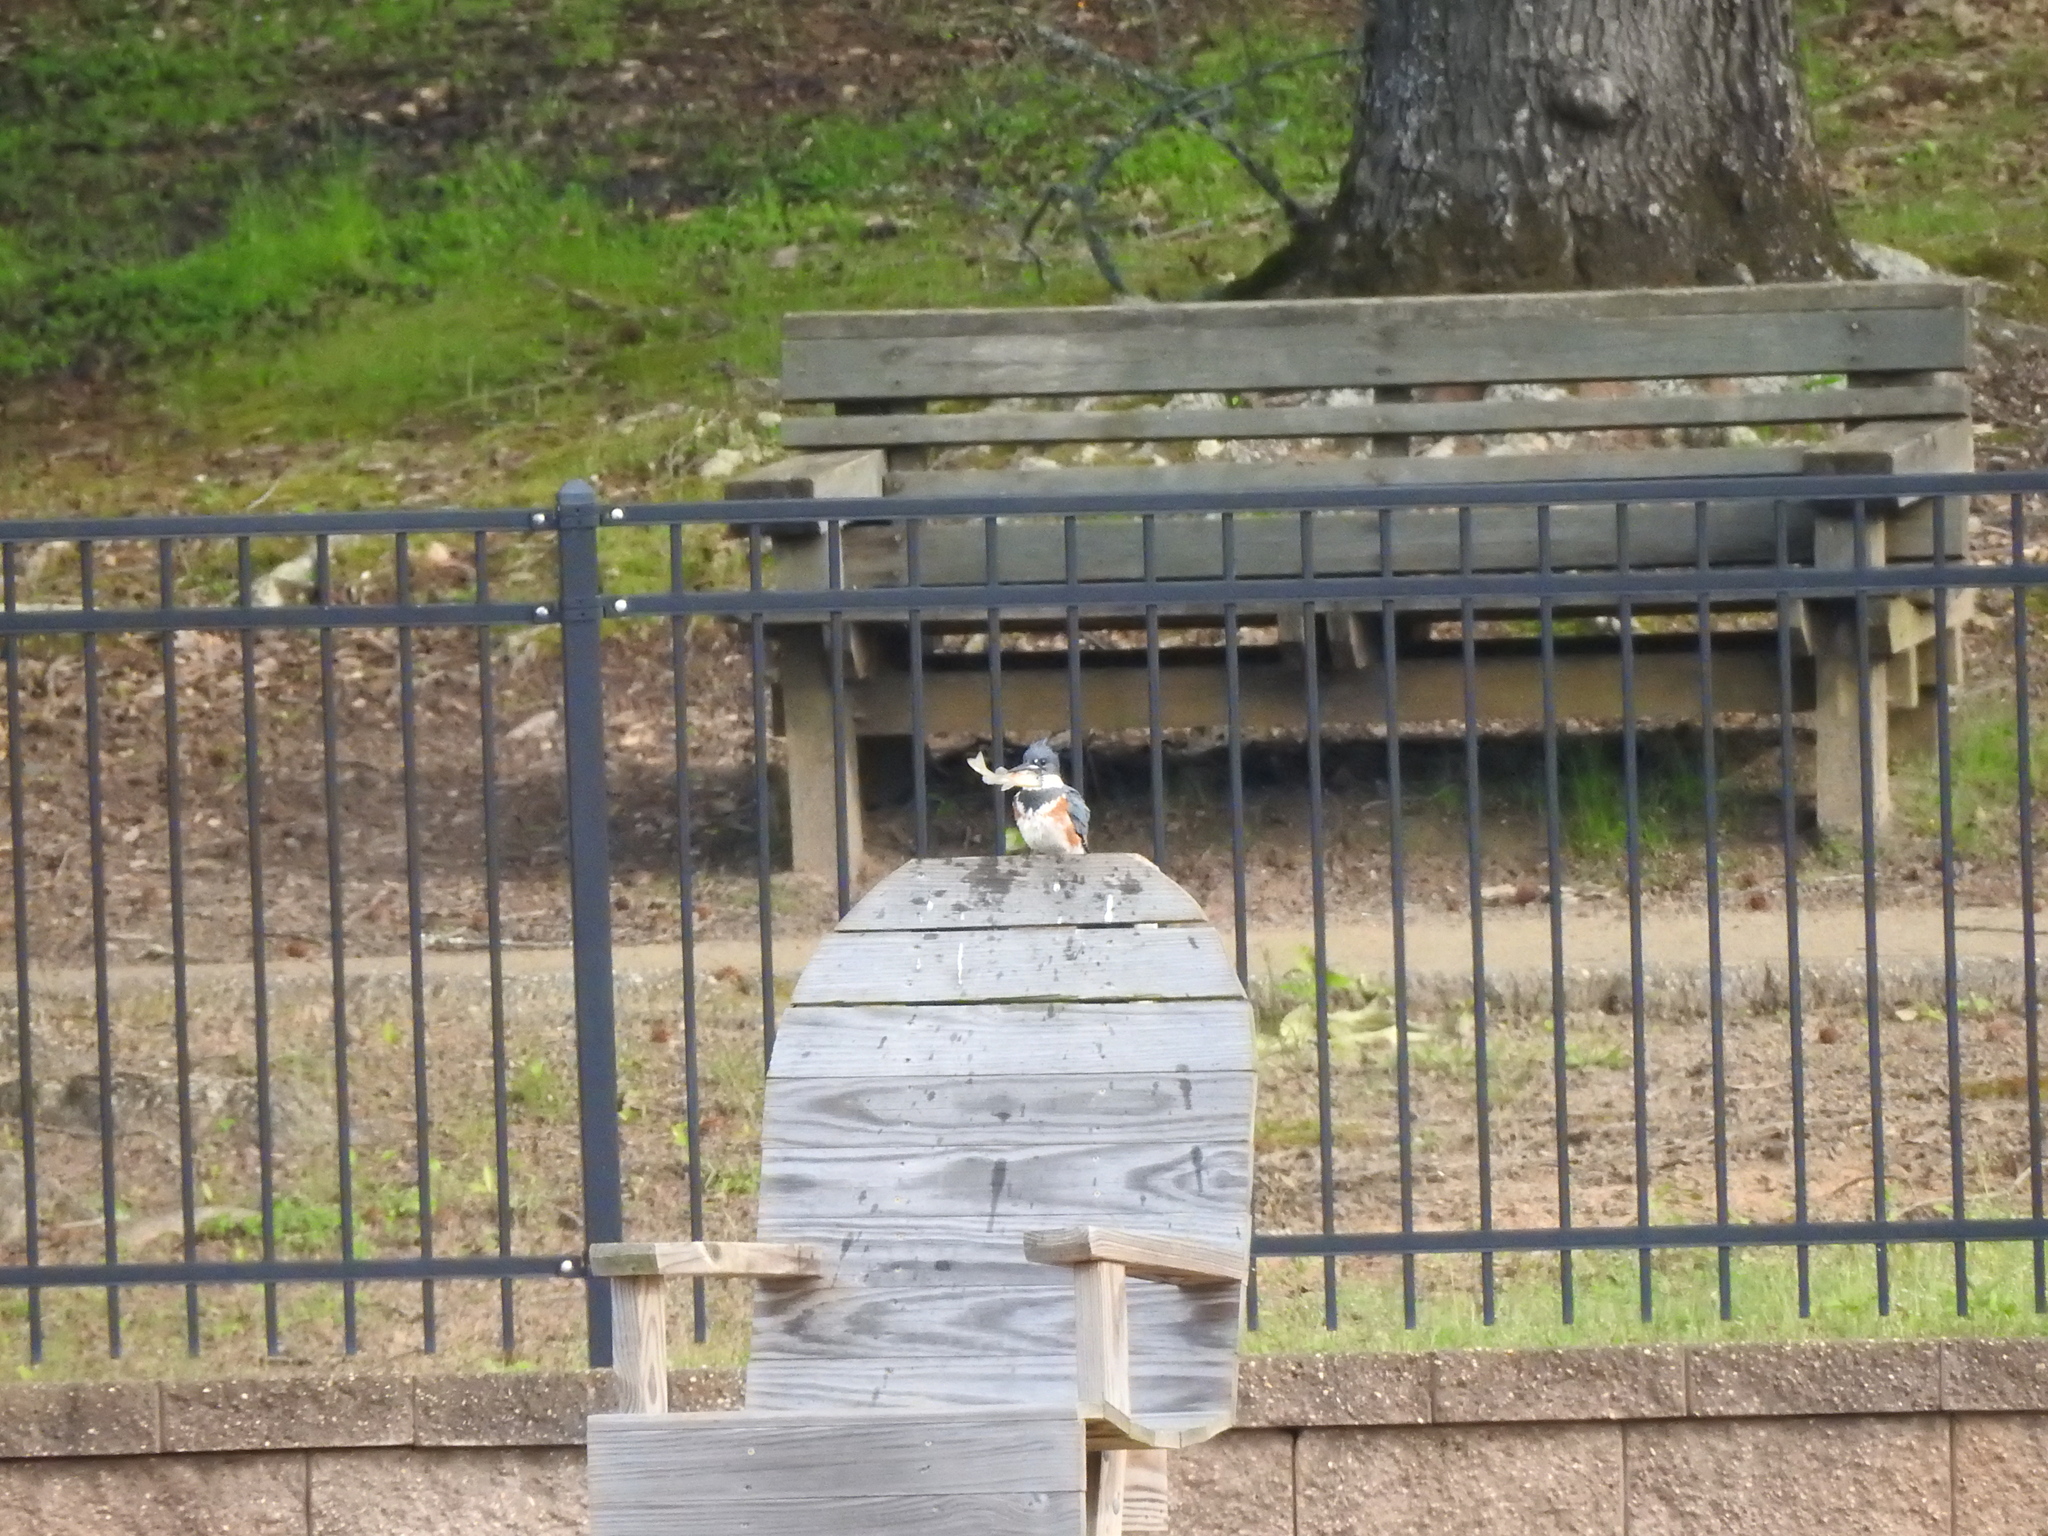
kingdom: Animalia
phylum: Chordata
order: Perciformes
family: Centrarchidae
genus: Lepomis
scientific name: Lepomis
